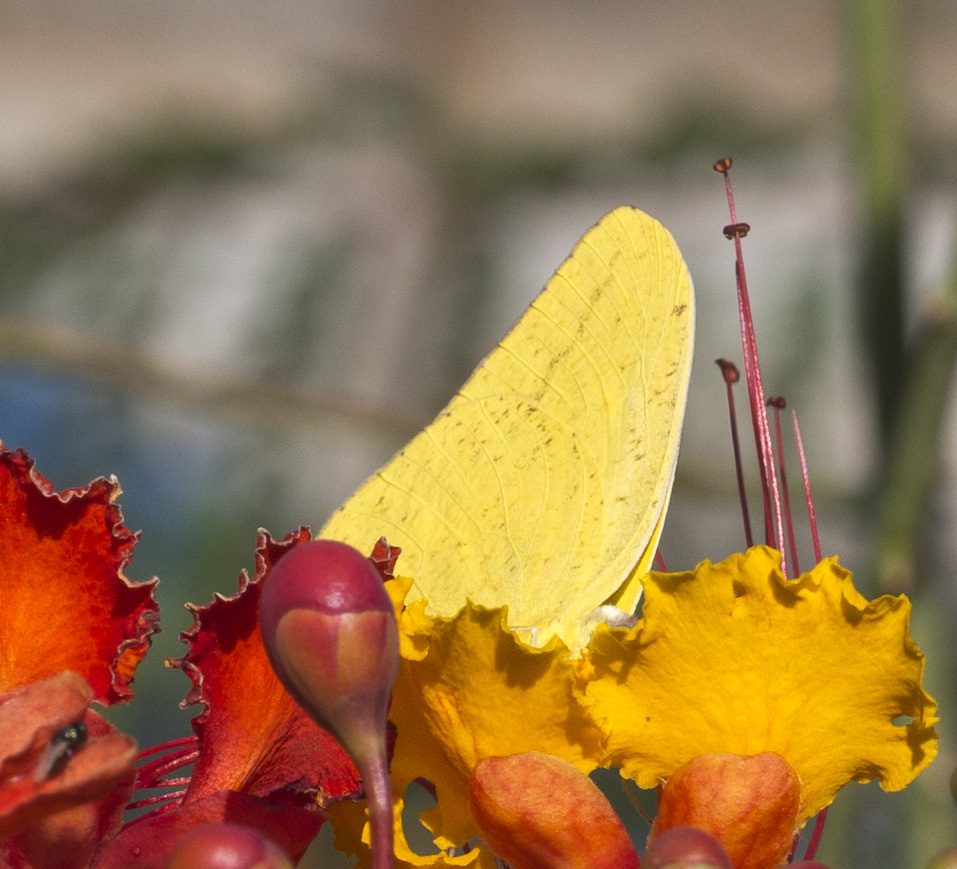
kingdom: Animalia
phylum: Arthropoda
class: Insecta
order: Lepidoptera
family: Pieridae
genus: Phoebis
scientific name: Phoebis agarithe
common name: Large orange sulphur
